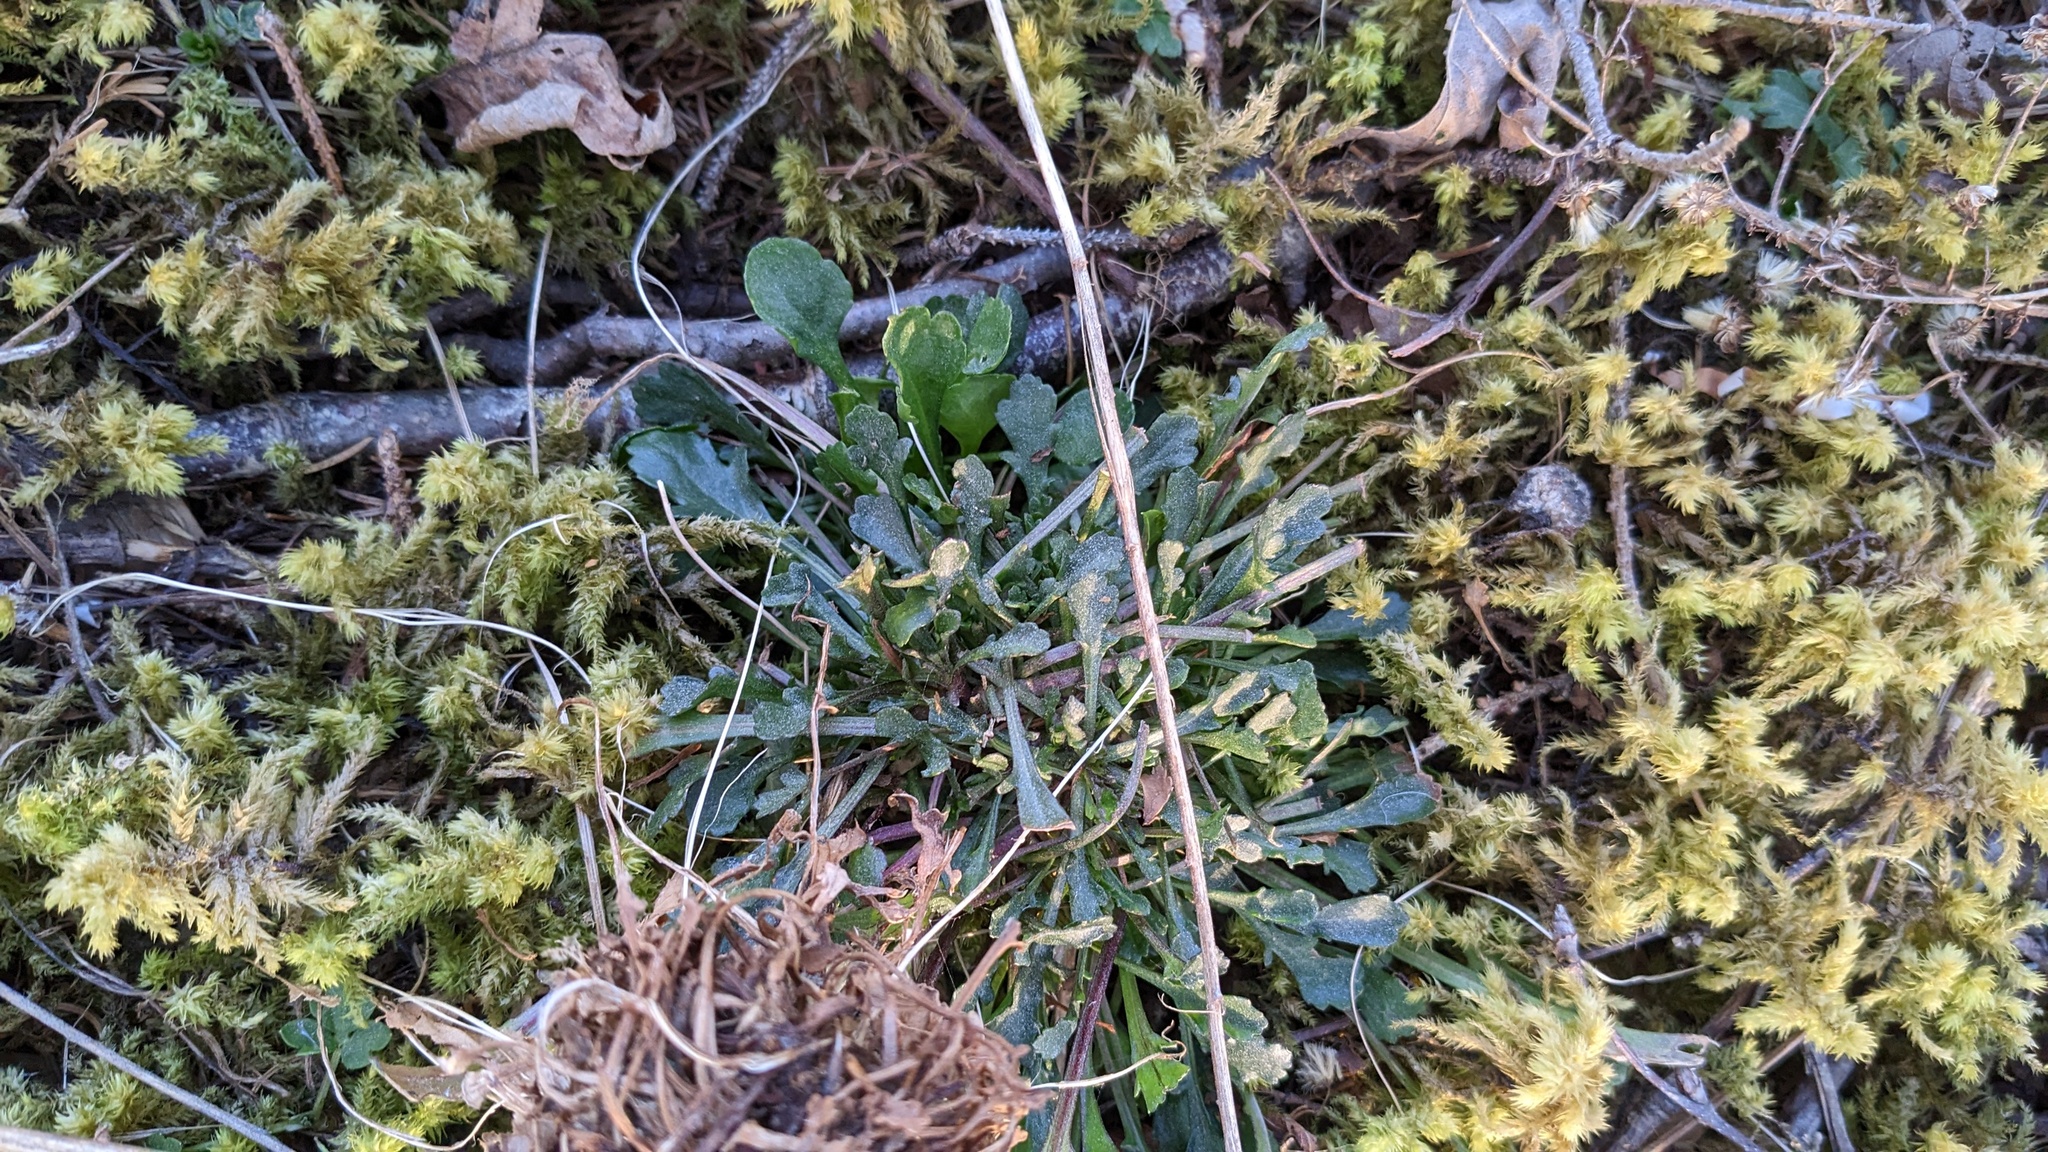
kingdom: Plantae
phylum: Tracheophyta
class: Magnoliopsida
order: Asterales
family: Asteraceae
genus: Leucanthemum
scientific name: Leucanthemum vulgare
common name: Oxeye daisy
